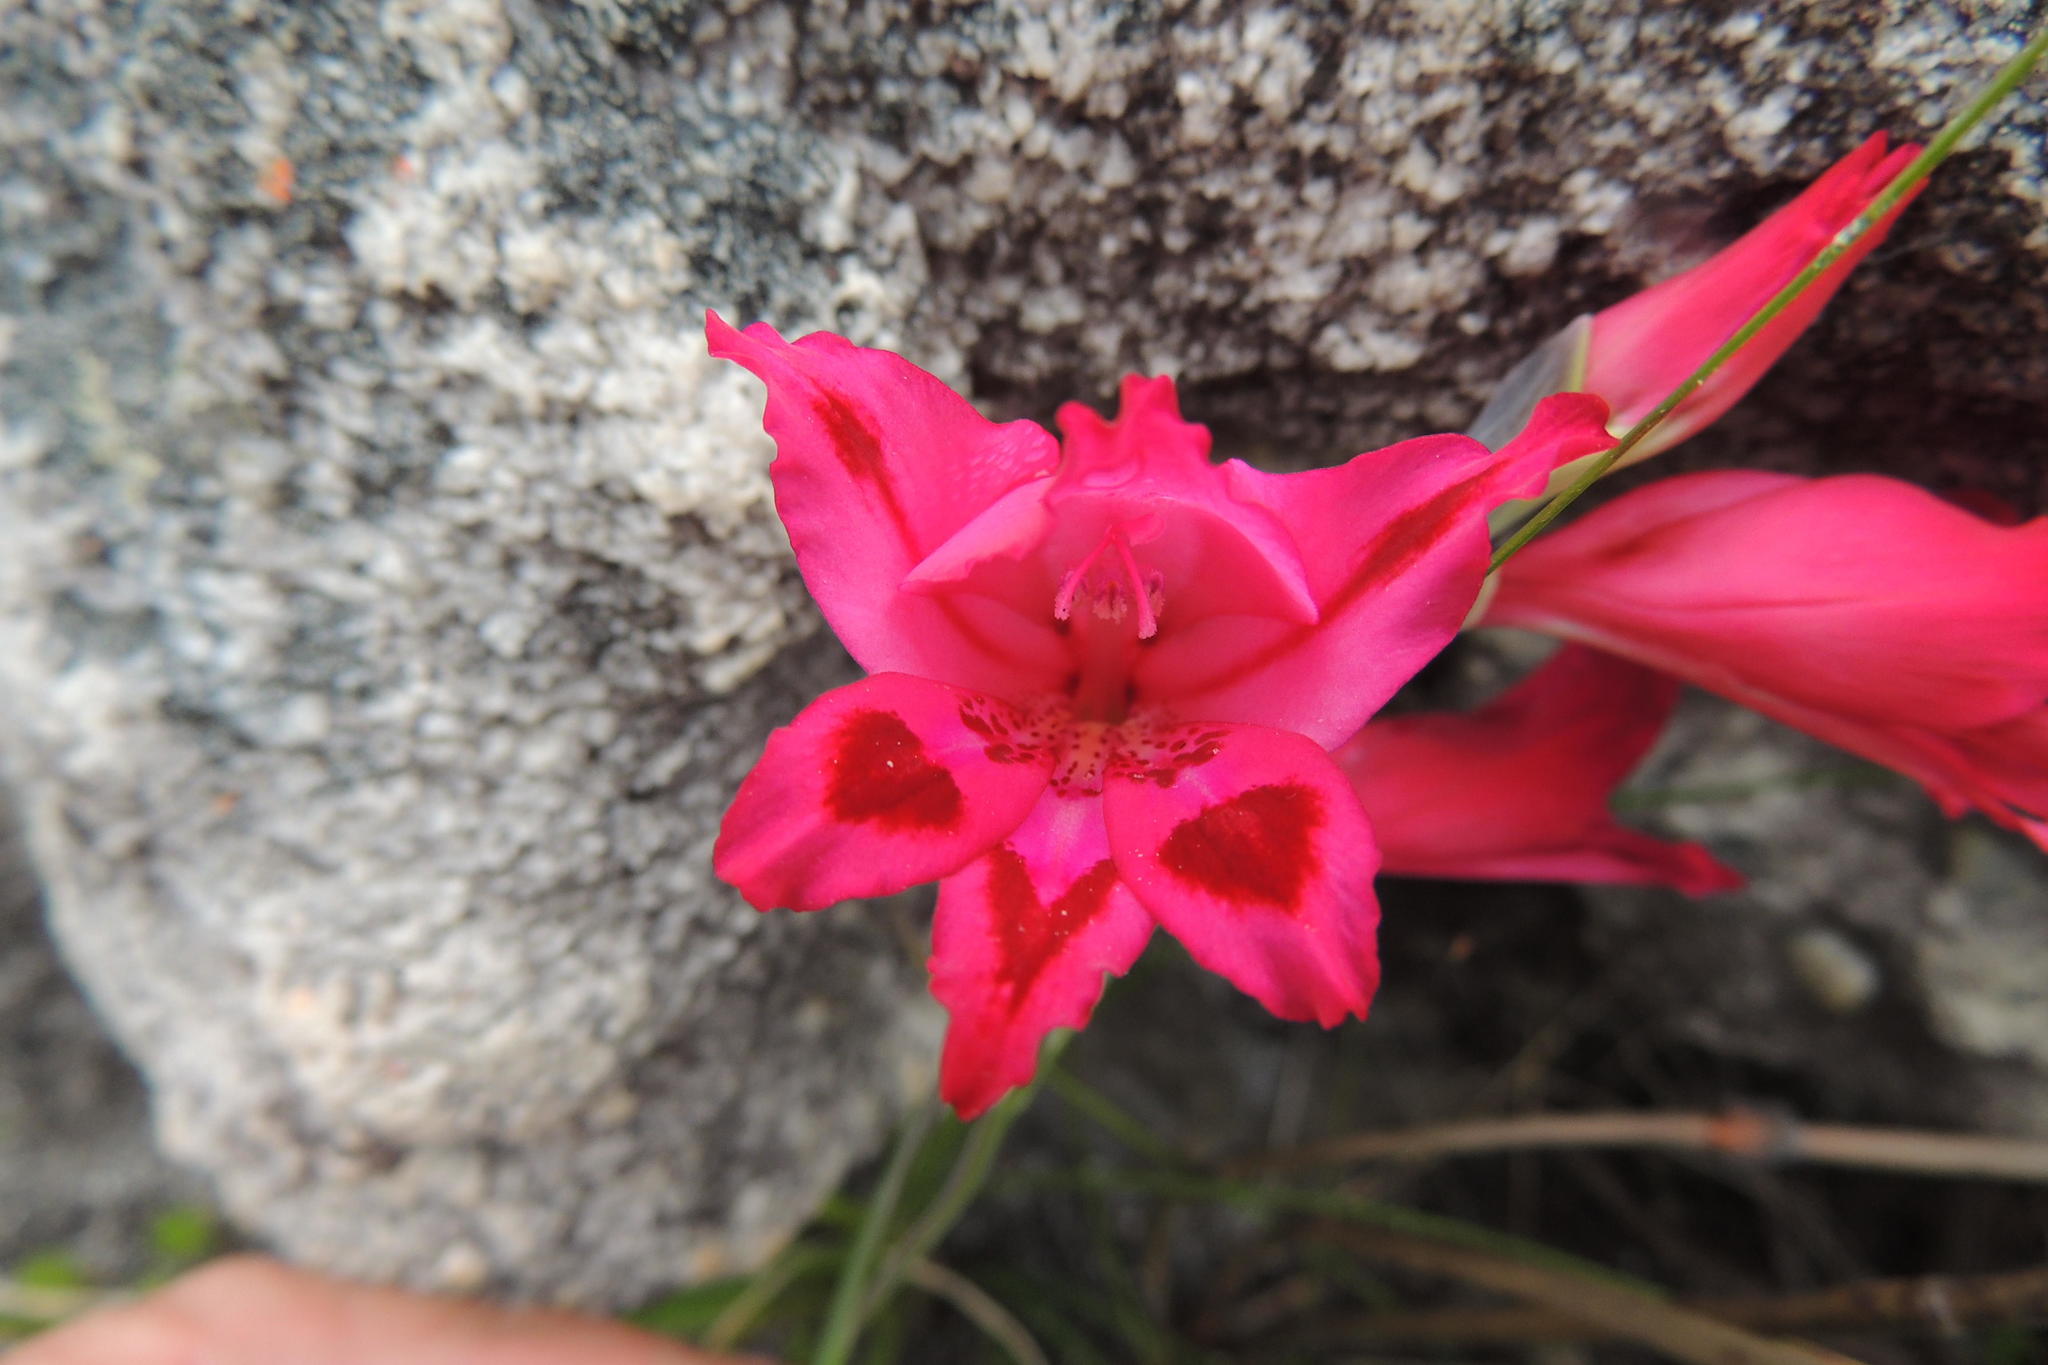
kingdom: Plantae
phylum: Tracheophyta
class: Liliopsida
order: Asparagales
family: Iridaceae
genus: Gladiolus
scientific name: Gladiolus crispulatus
